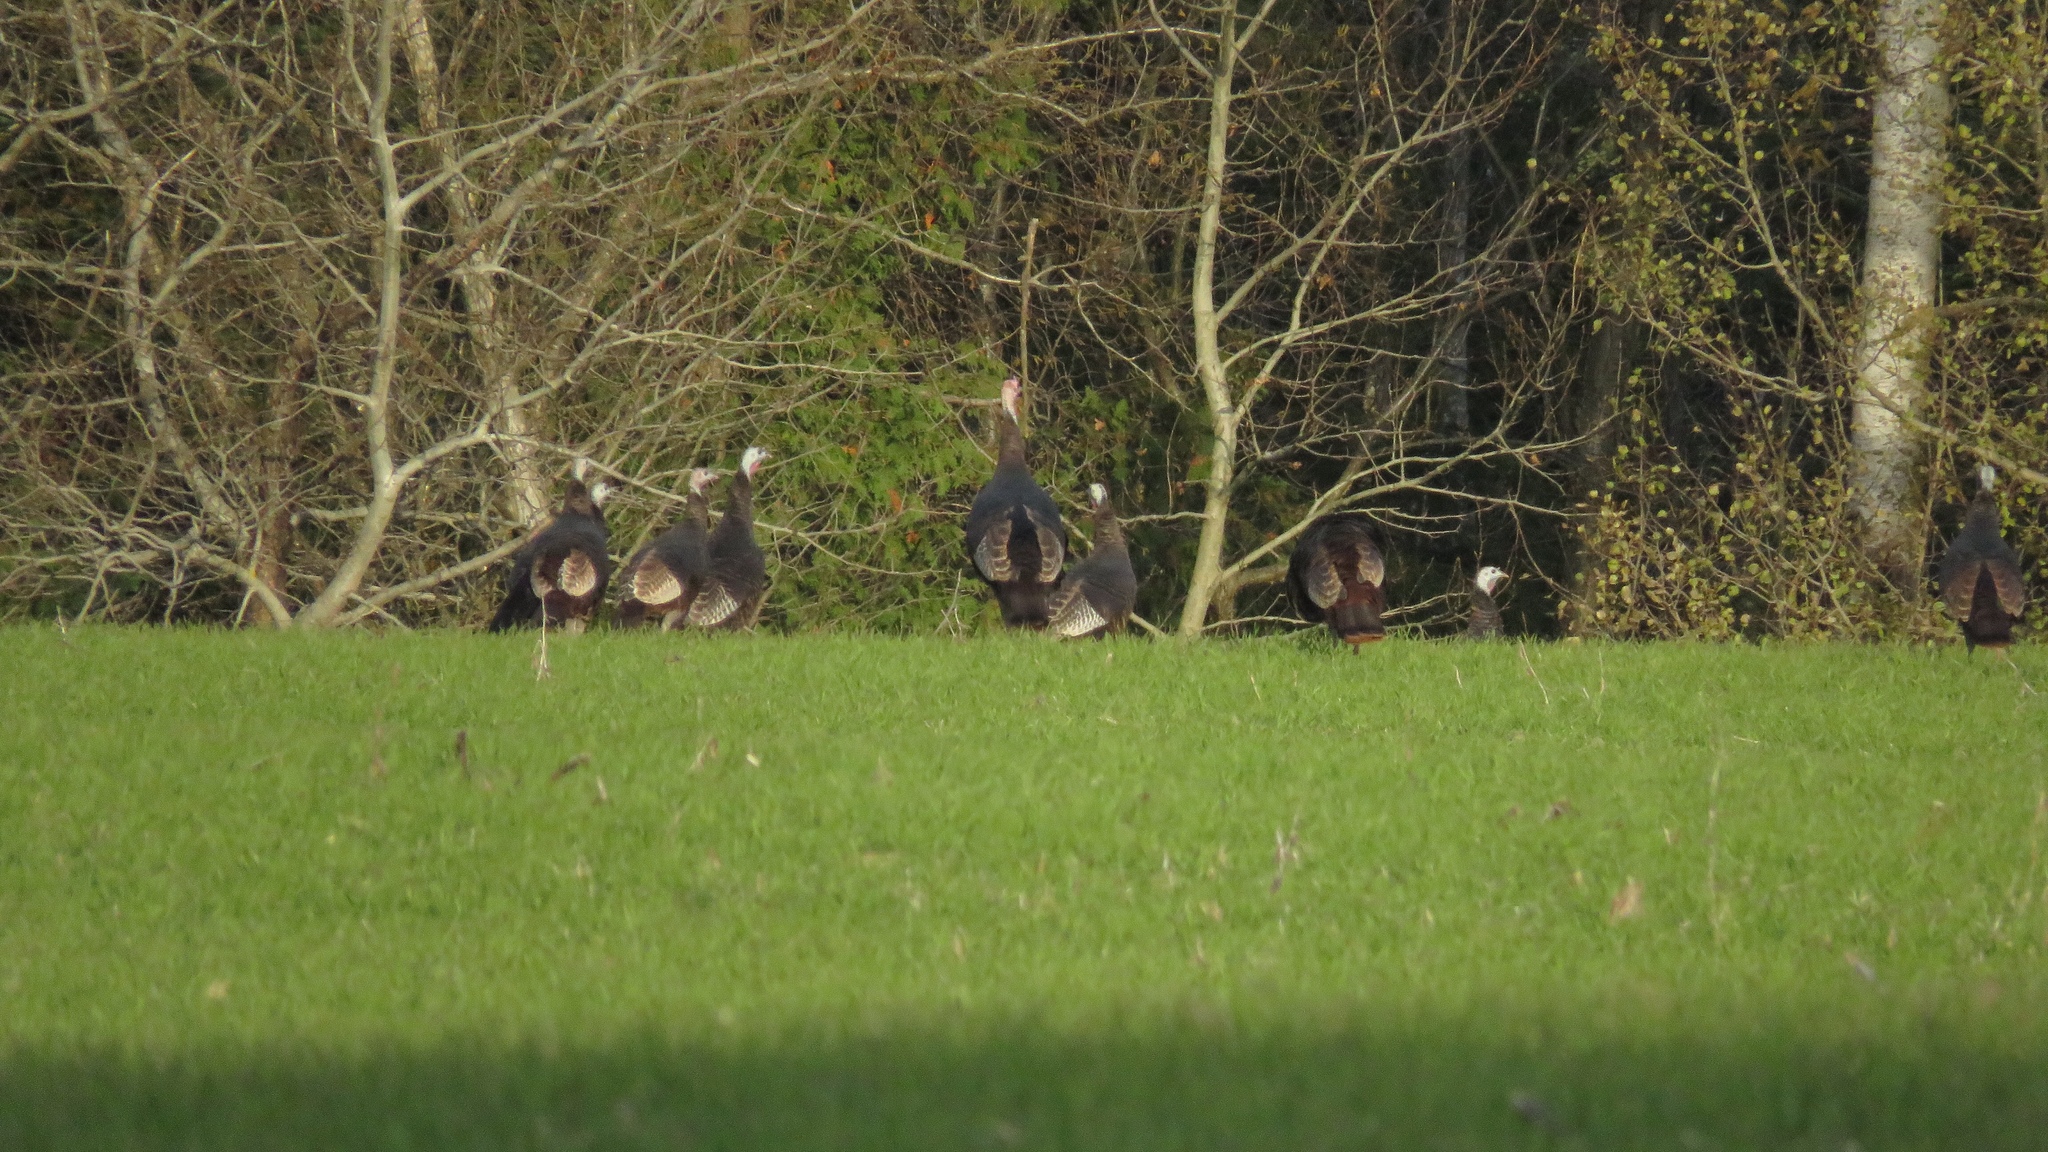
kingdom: Animalia
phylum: Chordata
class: Aves
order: Galliformes
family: Phasianidae
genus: Meleagris
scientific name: Meleagris gallopavo
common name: Wild turkey
